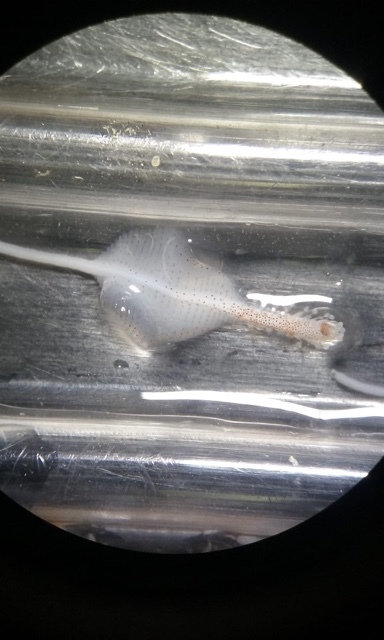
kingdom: Animalia
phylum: Mollusca
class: Cephalopoda
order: Oegopsida
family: Chiroteuthidae
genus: Asperoteuthis
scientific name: Asperoteuthis acanthoderma
